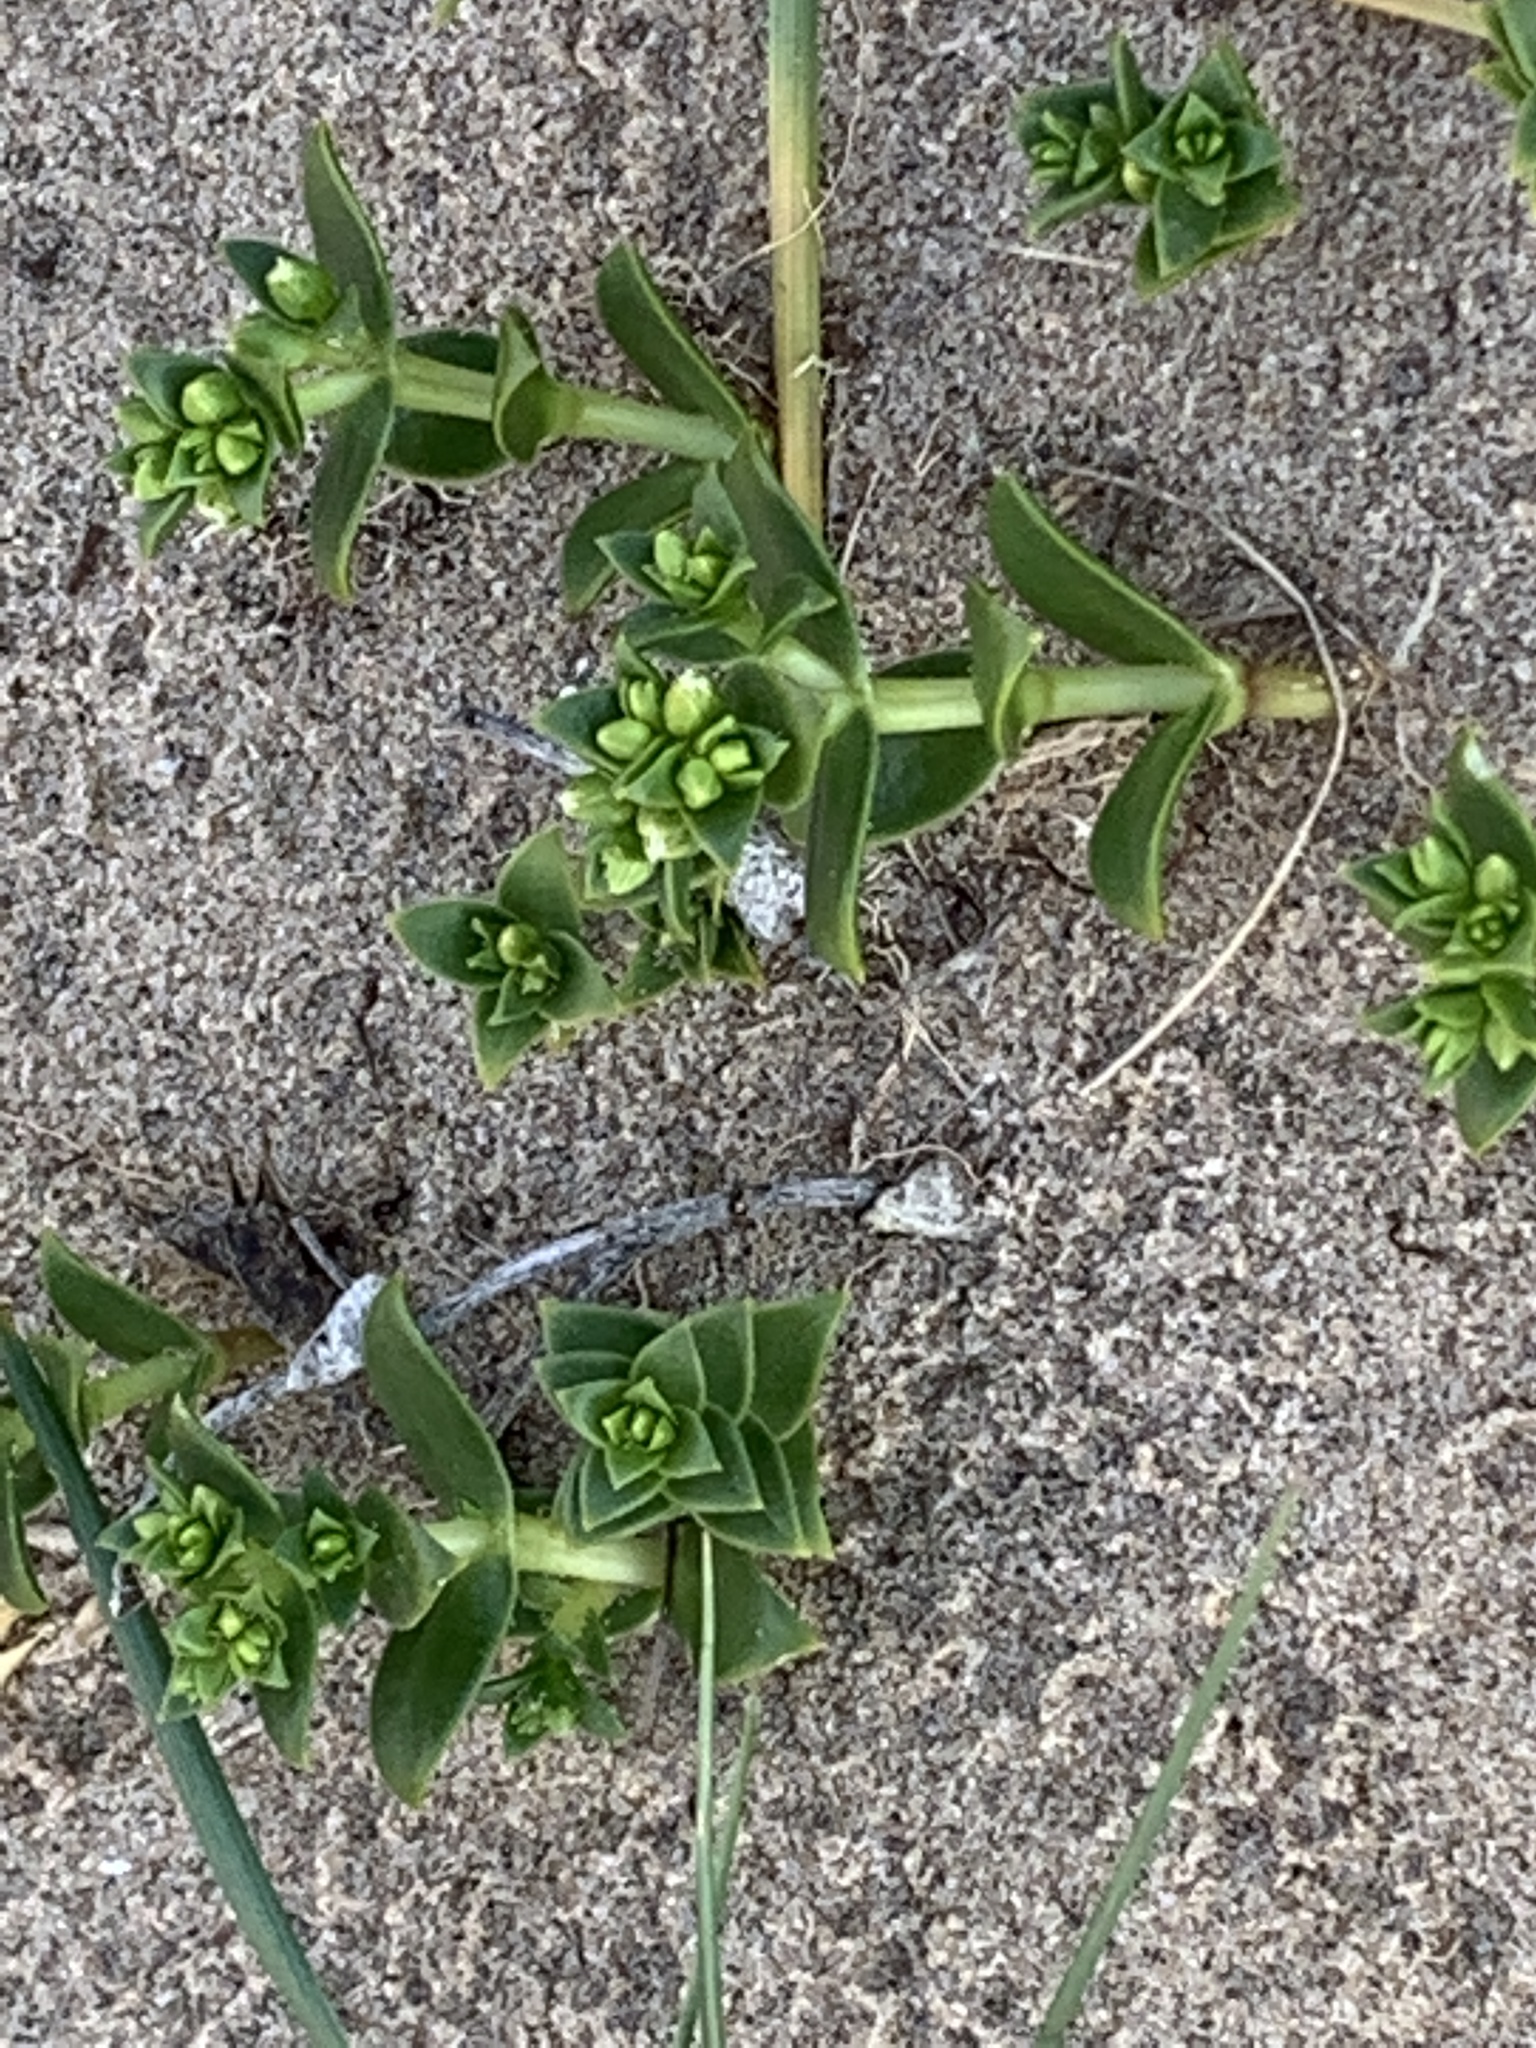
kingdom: Plantae
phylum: Tracheophyta
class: Magnoliopsida
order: Caryophyllales
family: Caryophyllaceae
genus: Honckenya
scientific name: Honckenya peploides
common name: Sea sandwort
